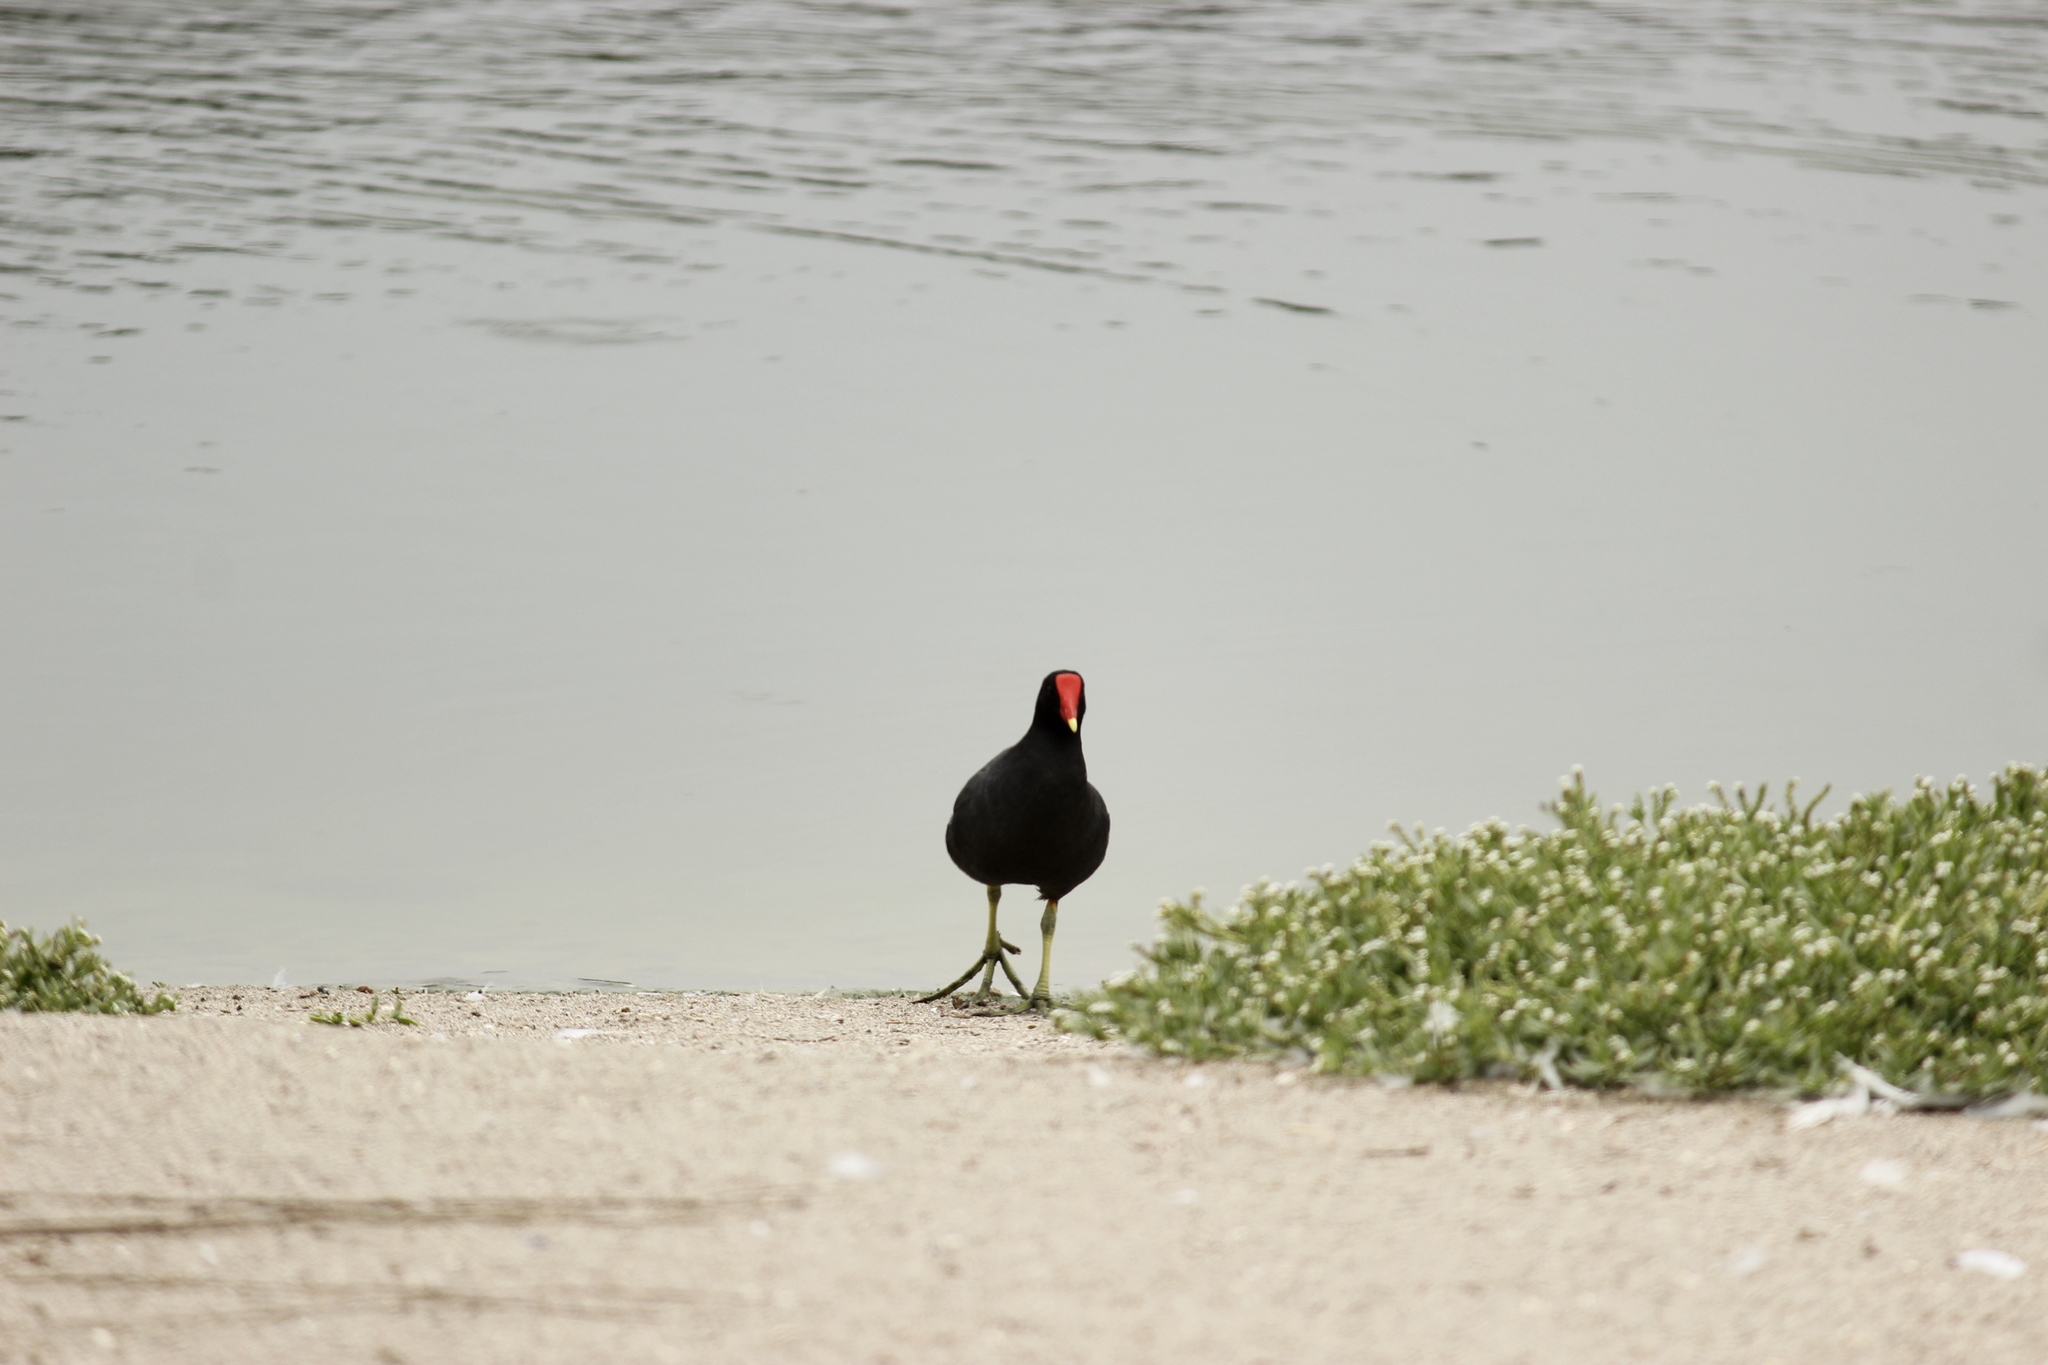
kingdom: Animalia
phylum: Chordata
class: Aves
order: Gruiformes
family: Rallidae
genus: Gallinula
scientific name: Gallinula chloropus
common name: Common moorhen
